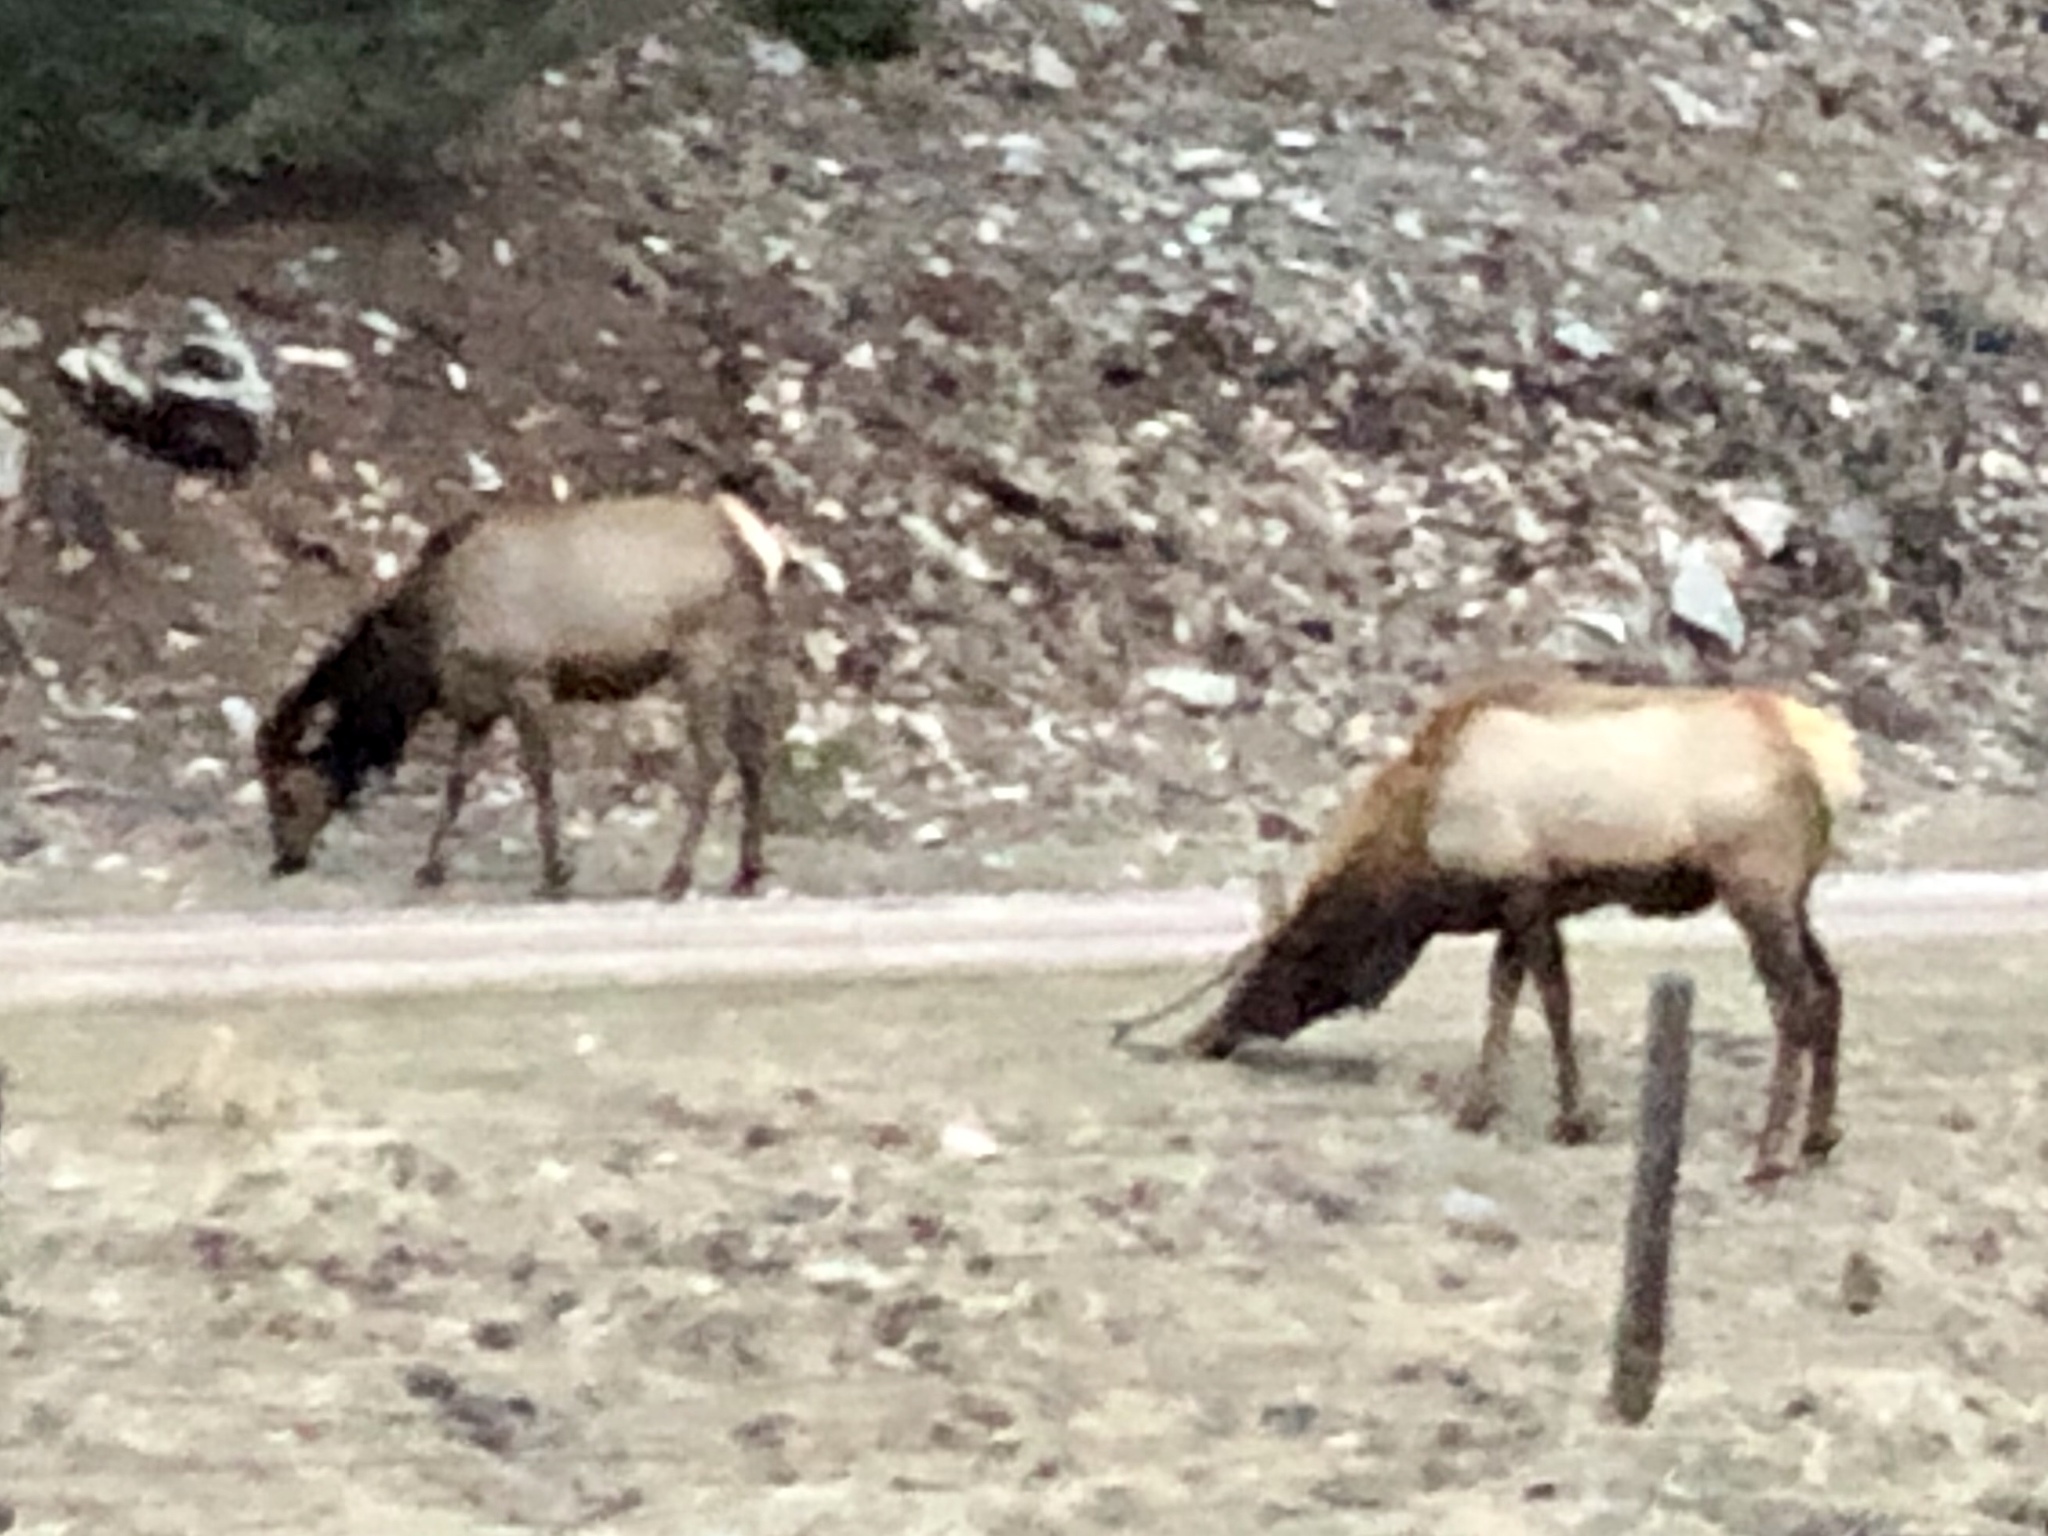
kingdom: Animalia
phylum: Chordata
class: Mammalia
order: Artiodactyla
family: Cervidae
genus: Cervus
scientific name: Cervus elaphus
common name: Red deer
